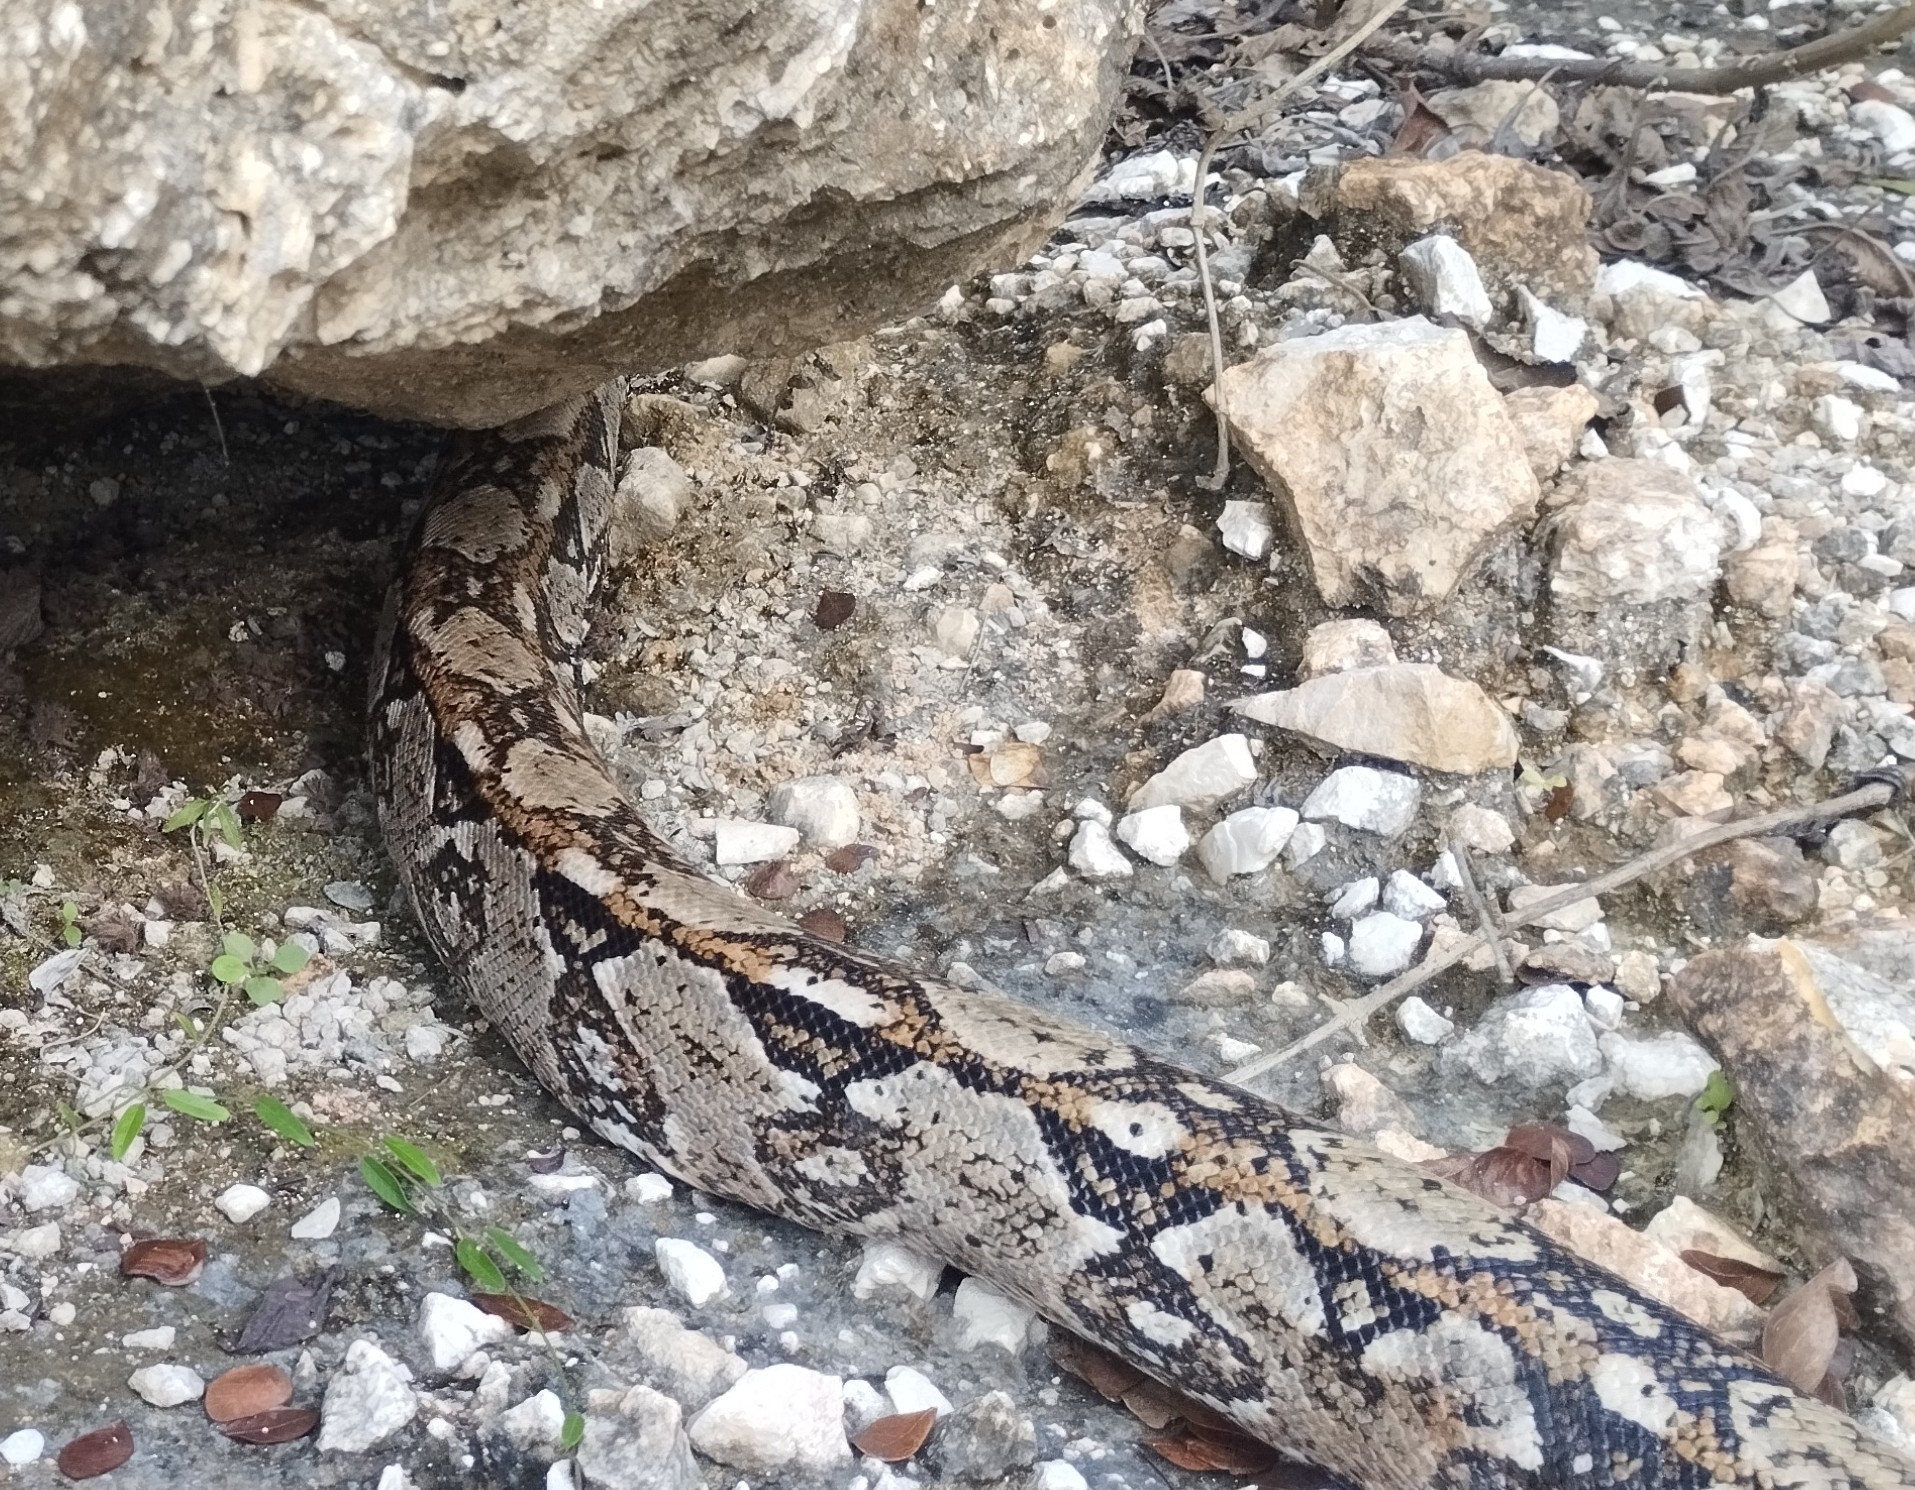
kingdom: Animalia
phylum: Chordata
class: Squamata
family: Boidae
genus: Boa
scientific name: Boa imperator
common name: Central american boa
